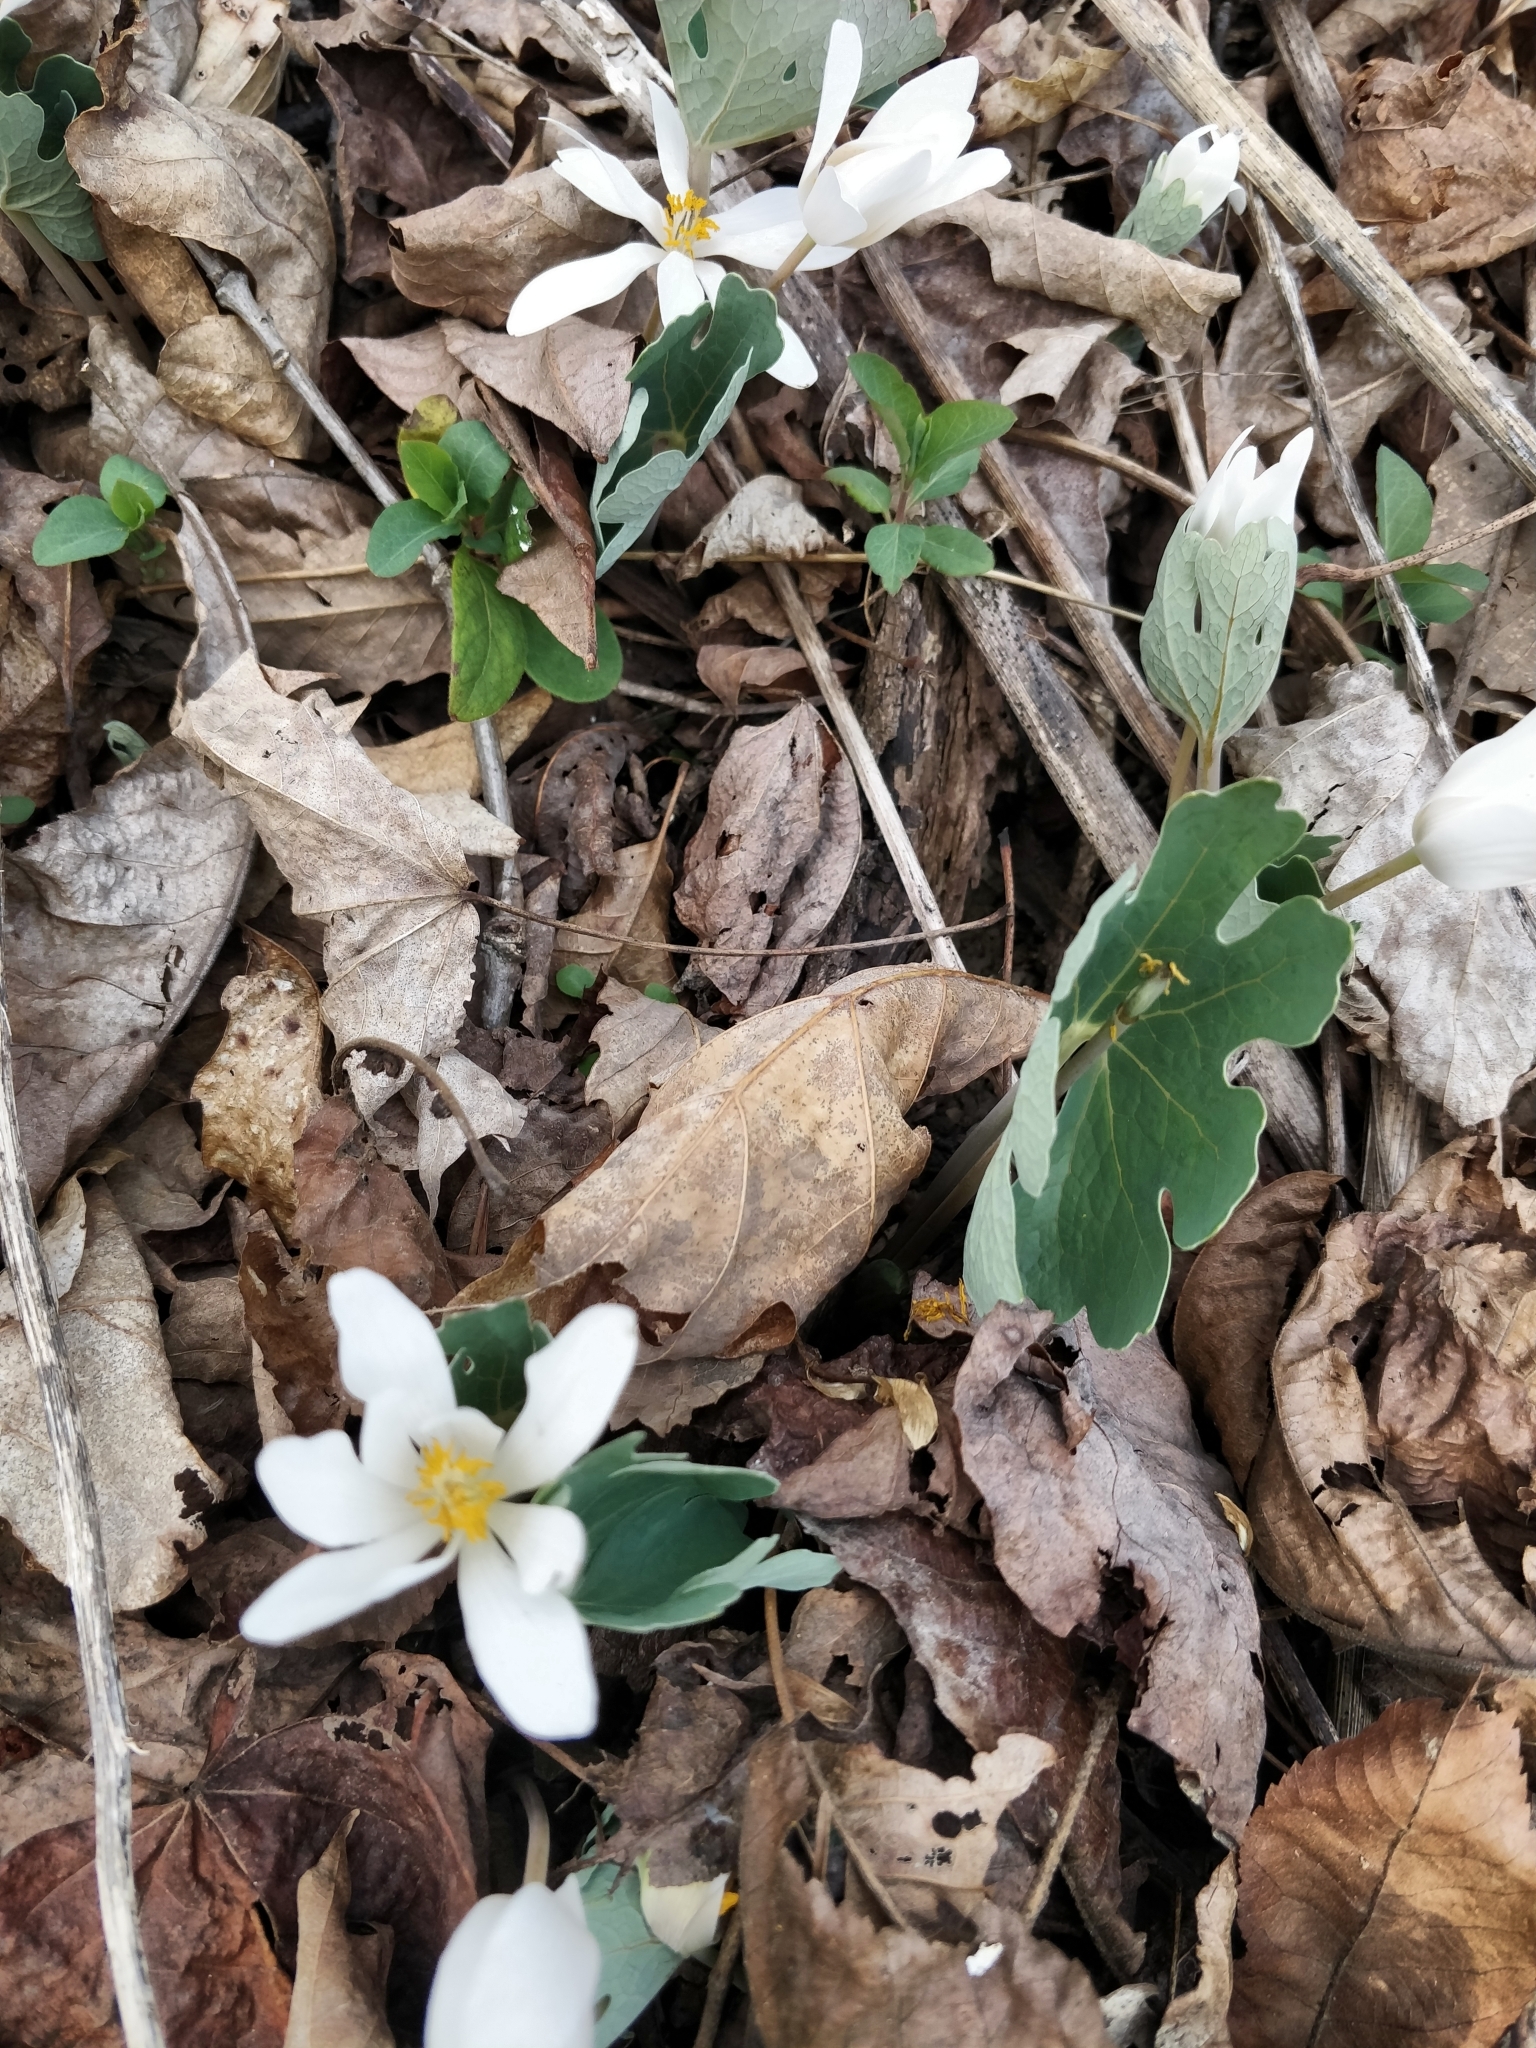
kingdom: Plantae
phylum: Tracheophyta
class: Magnoliopsida
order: Ranunculales
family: Papaveraceae
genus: Sanguinaria
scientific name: Sanguinaria canadensis
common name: Bloodroot
